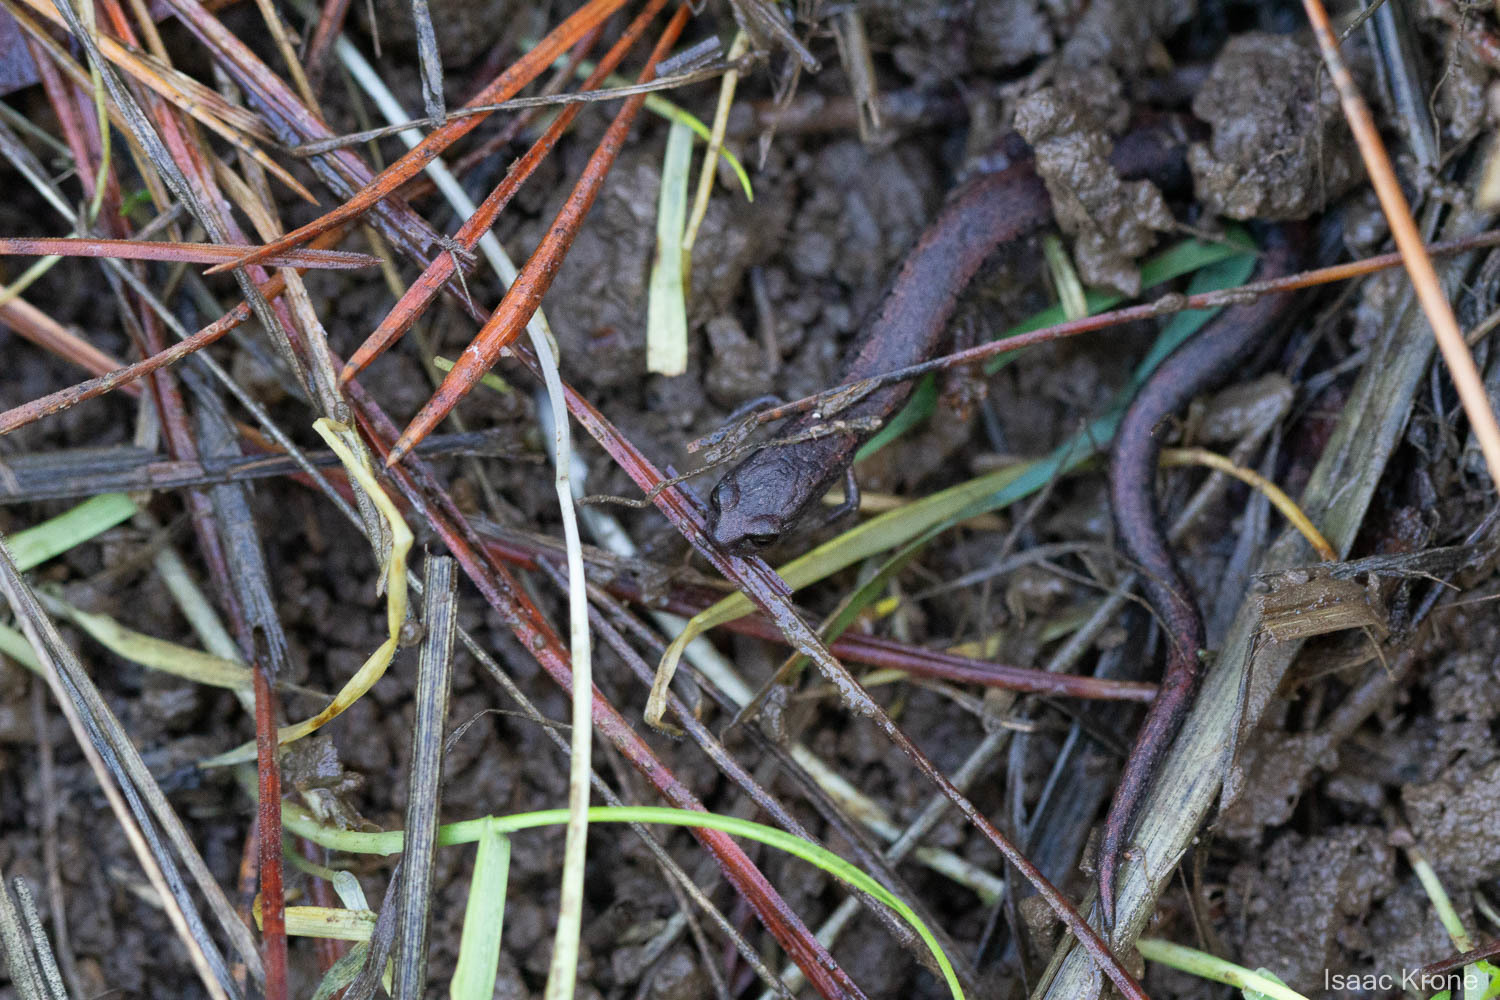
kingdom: Animalia
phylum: Chordata
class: Amphibia
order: Caudata
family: Plethodontidae
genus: Batrachoseps
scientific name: Batrachoseps attenuatus
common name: California slender salamander
